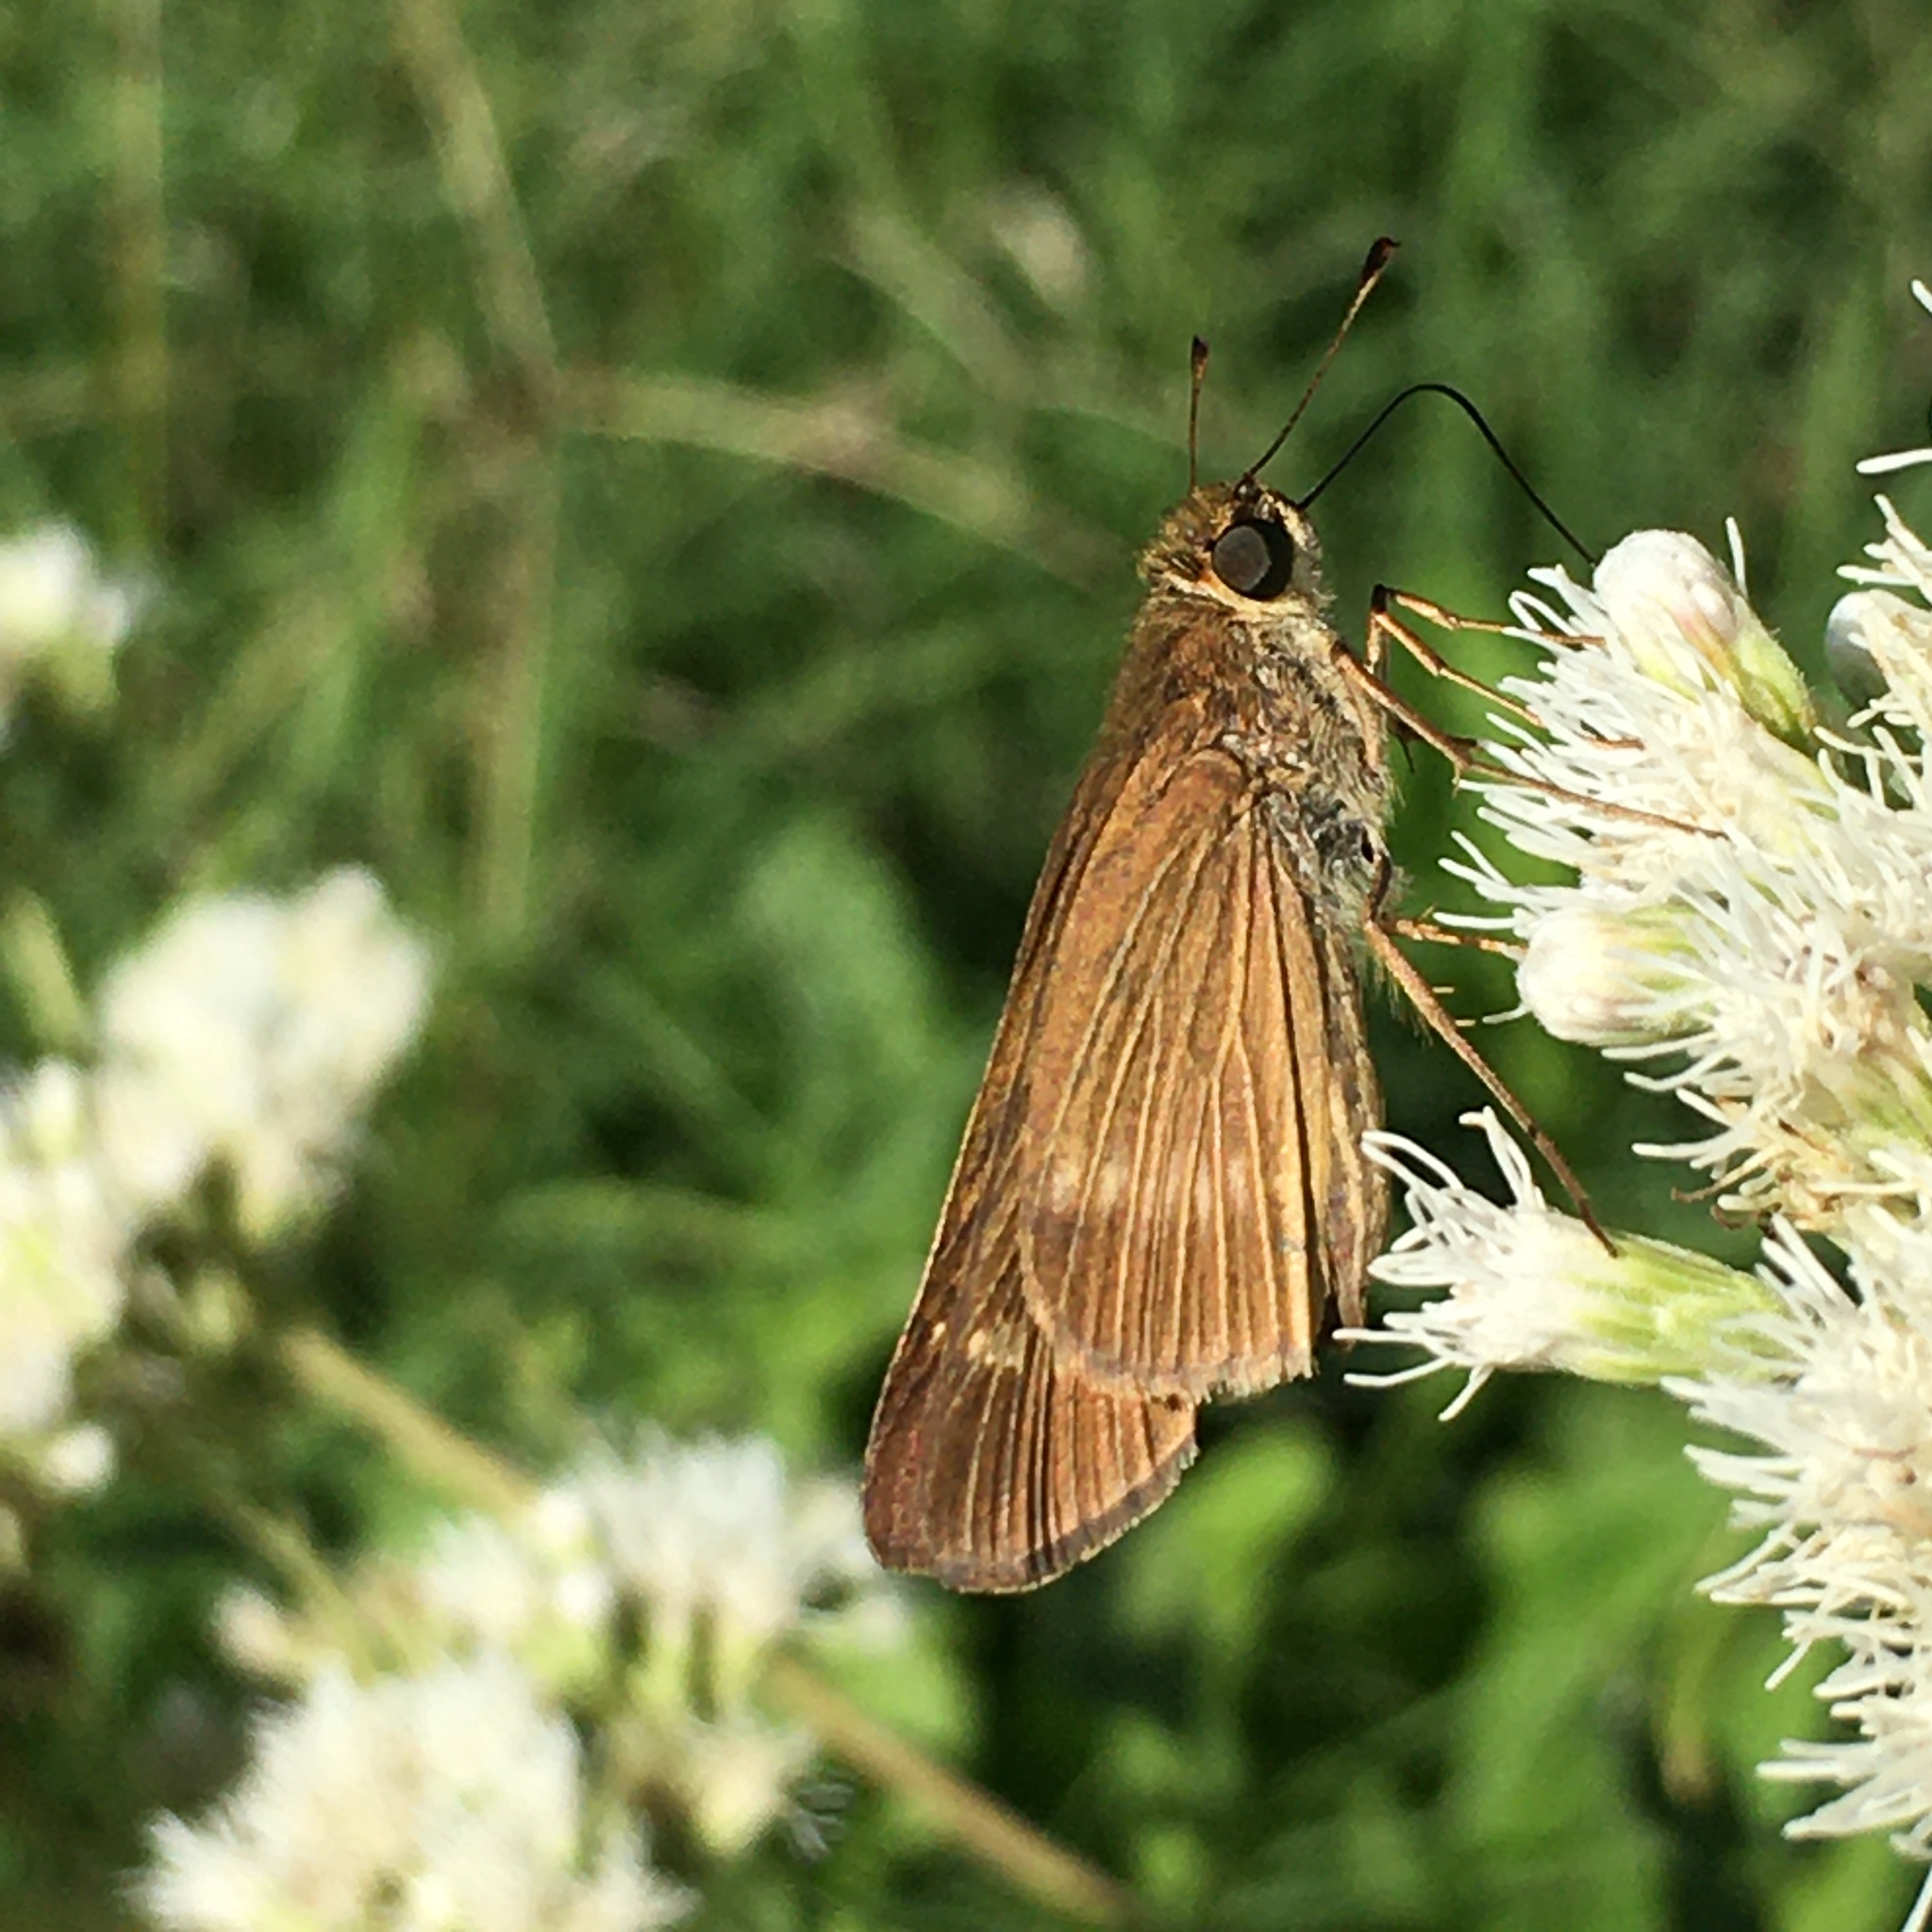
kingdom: Animalia
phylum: Arthropoda
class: Insecta
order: Lepidoptera
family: Hesperiidae
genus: Panoquina
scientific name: Panoquina ocola
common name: Ocola skipper
